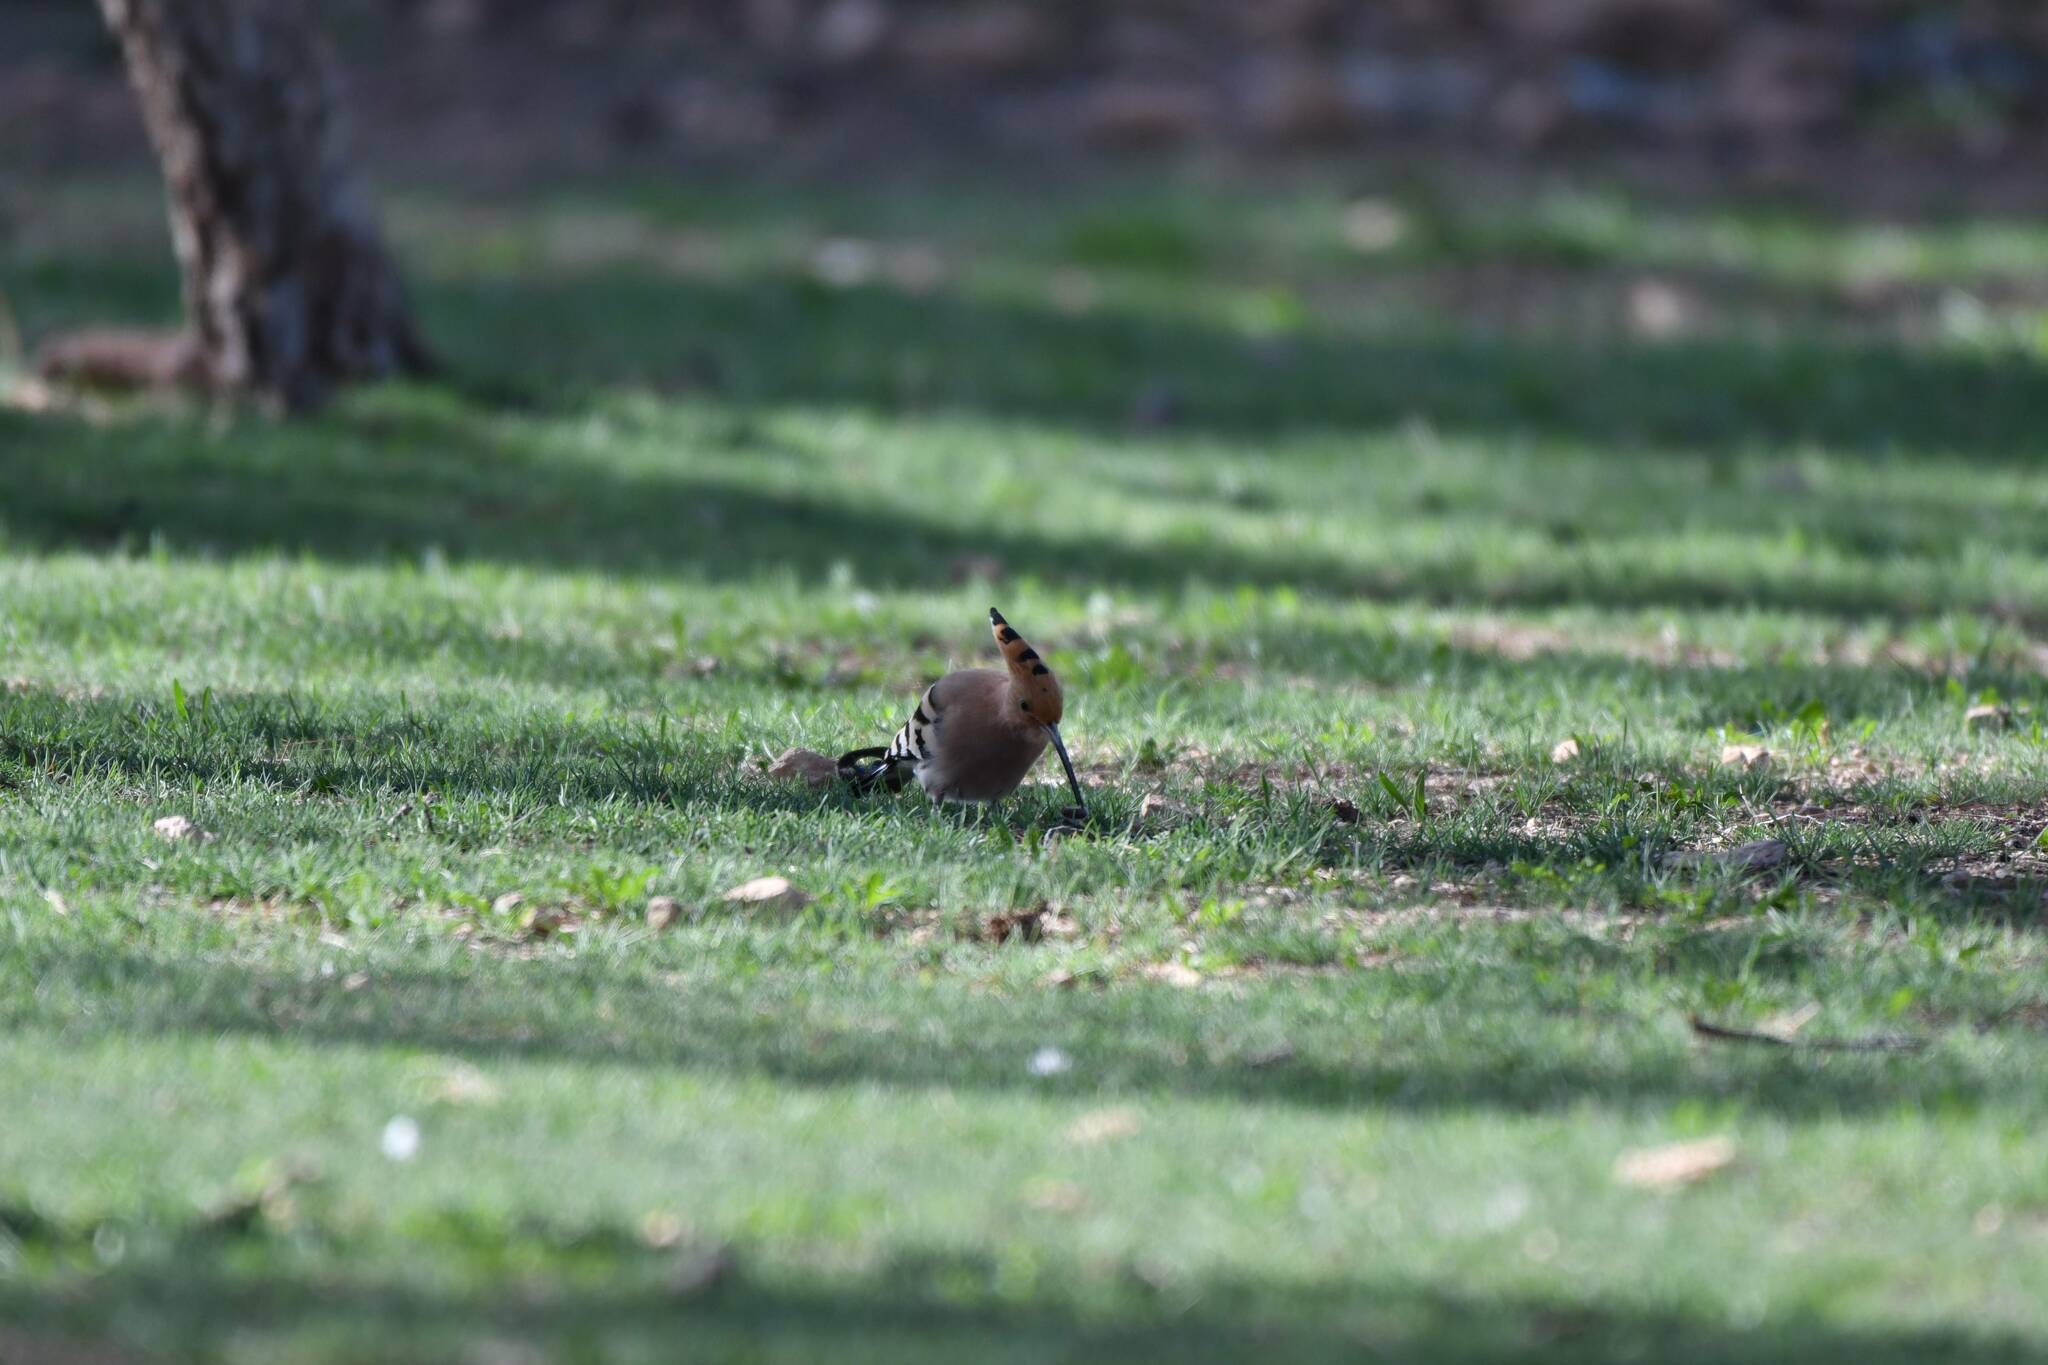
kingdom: Animalia
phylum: Chordata
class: Aves
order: Bucerotiformes
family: Upupidae
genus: Upupa
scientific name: Upupa epops
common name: Eurasian hoopoe
